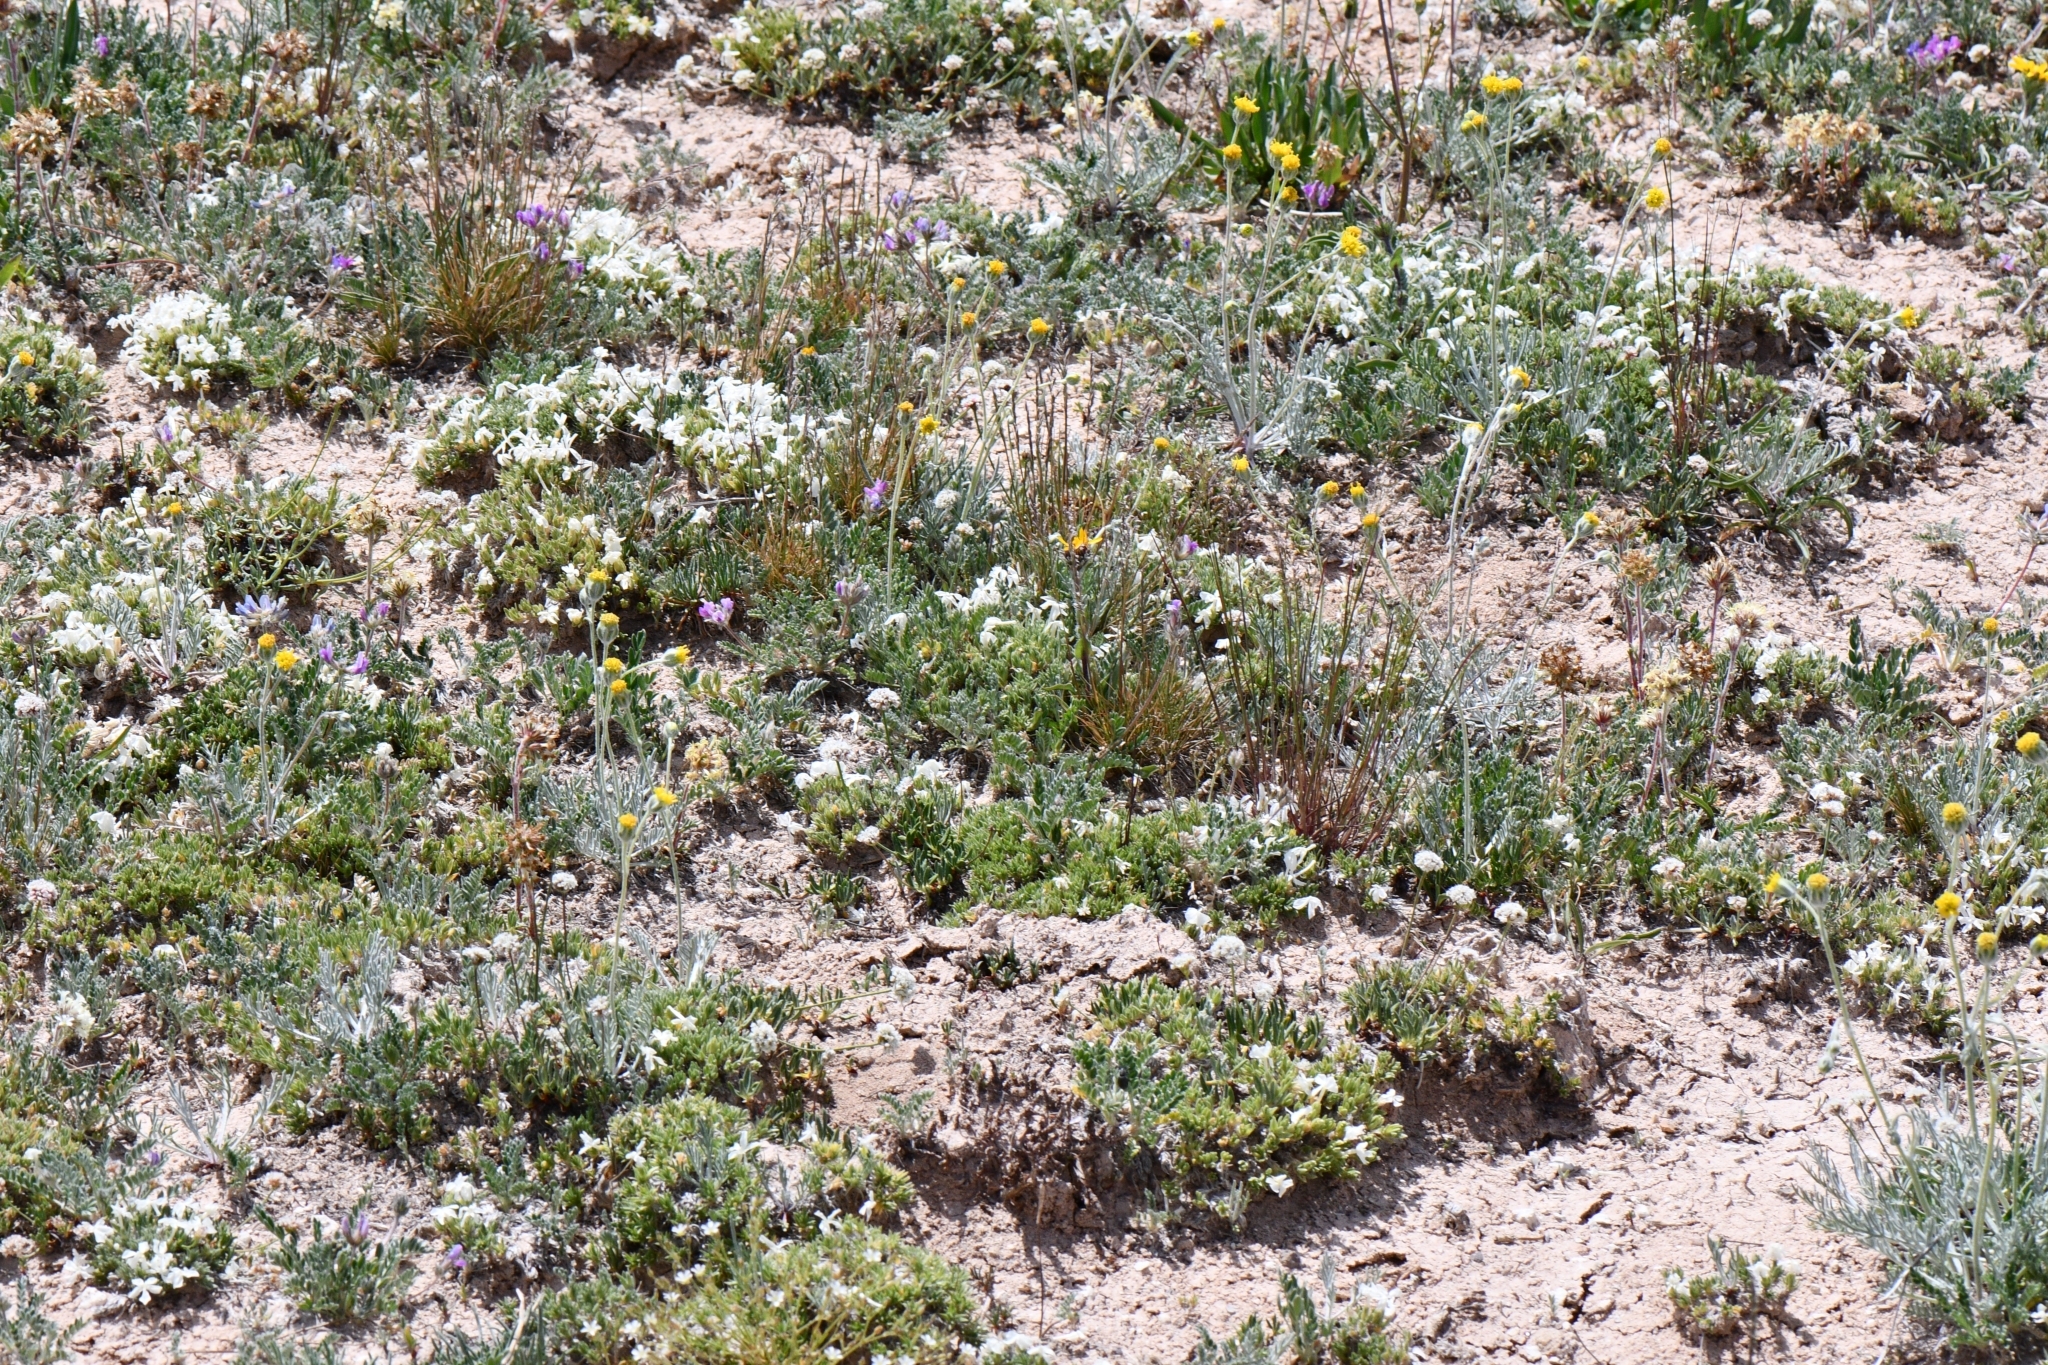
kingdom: Plantae
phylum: Tracheophyta
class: Magnoliopsida
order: Fabales
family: Fabaceae
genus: Oxytropis
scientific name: Oxytropis oreophila
